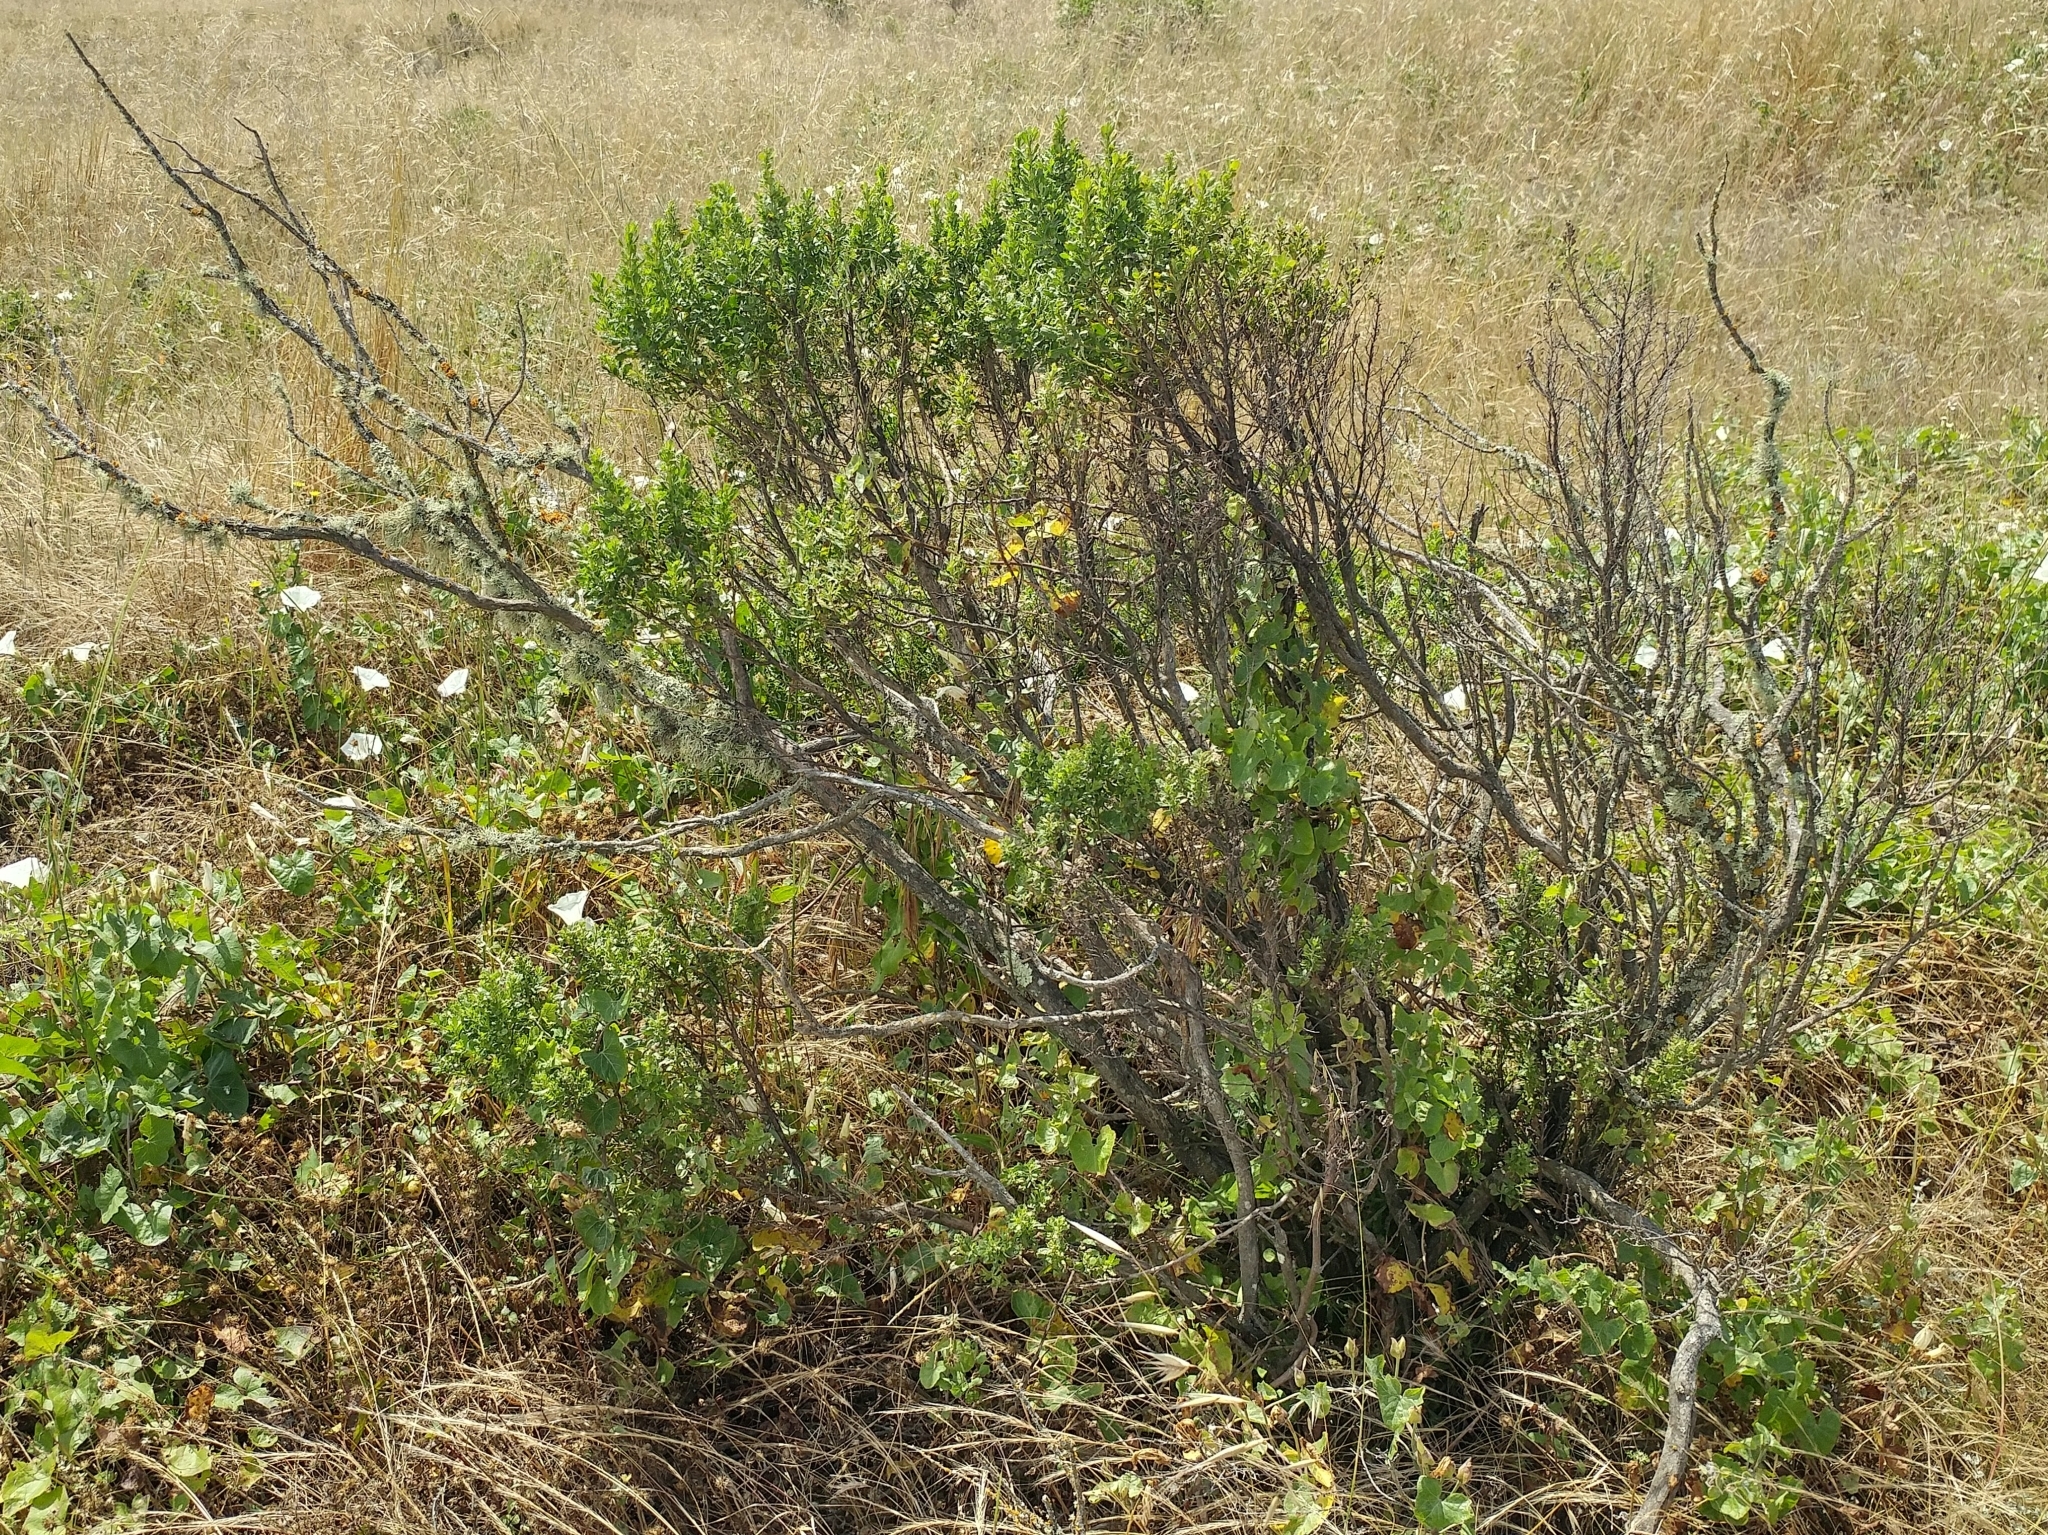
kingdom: Plantae
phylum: Tracheophyta
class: Magnoliopsida
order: Asterales
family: Asteraceae
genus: Baccharis
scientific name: Baccharis pilularis
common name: Coyotebrush
